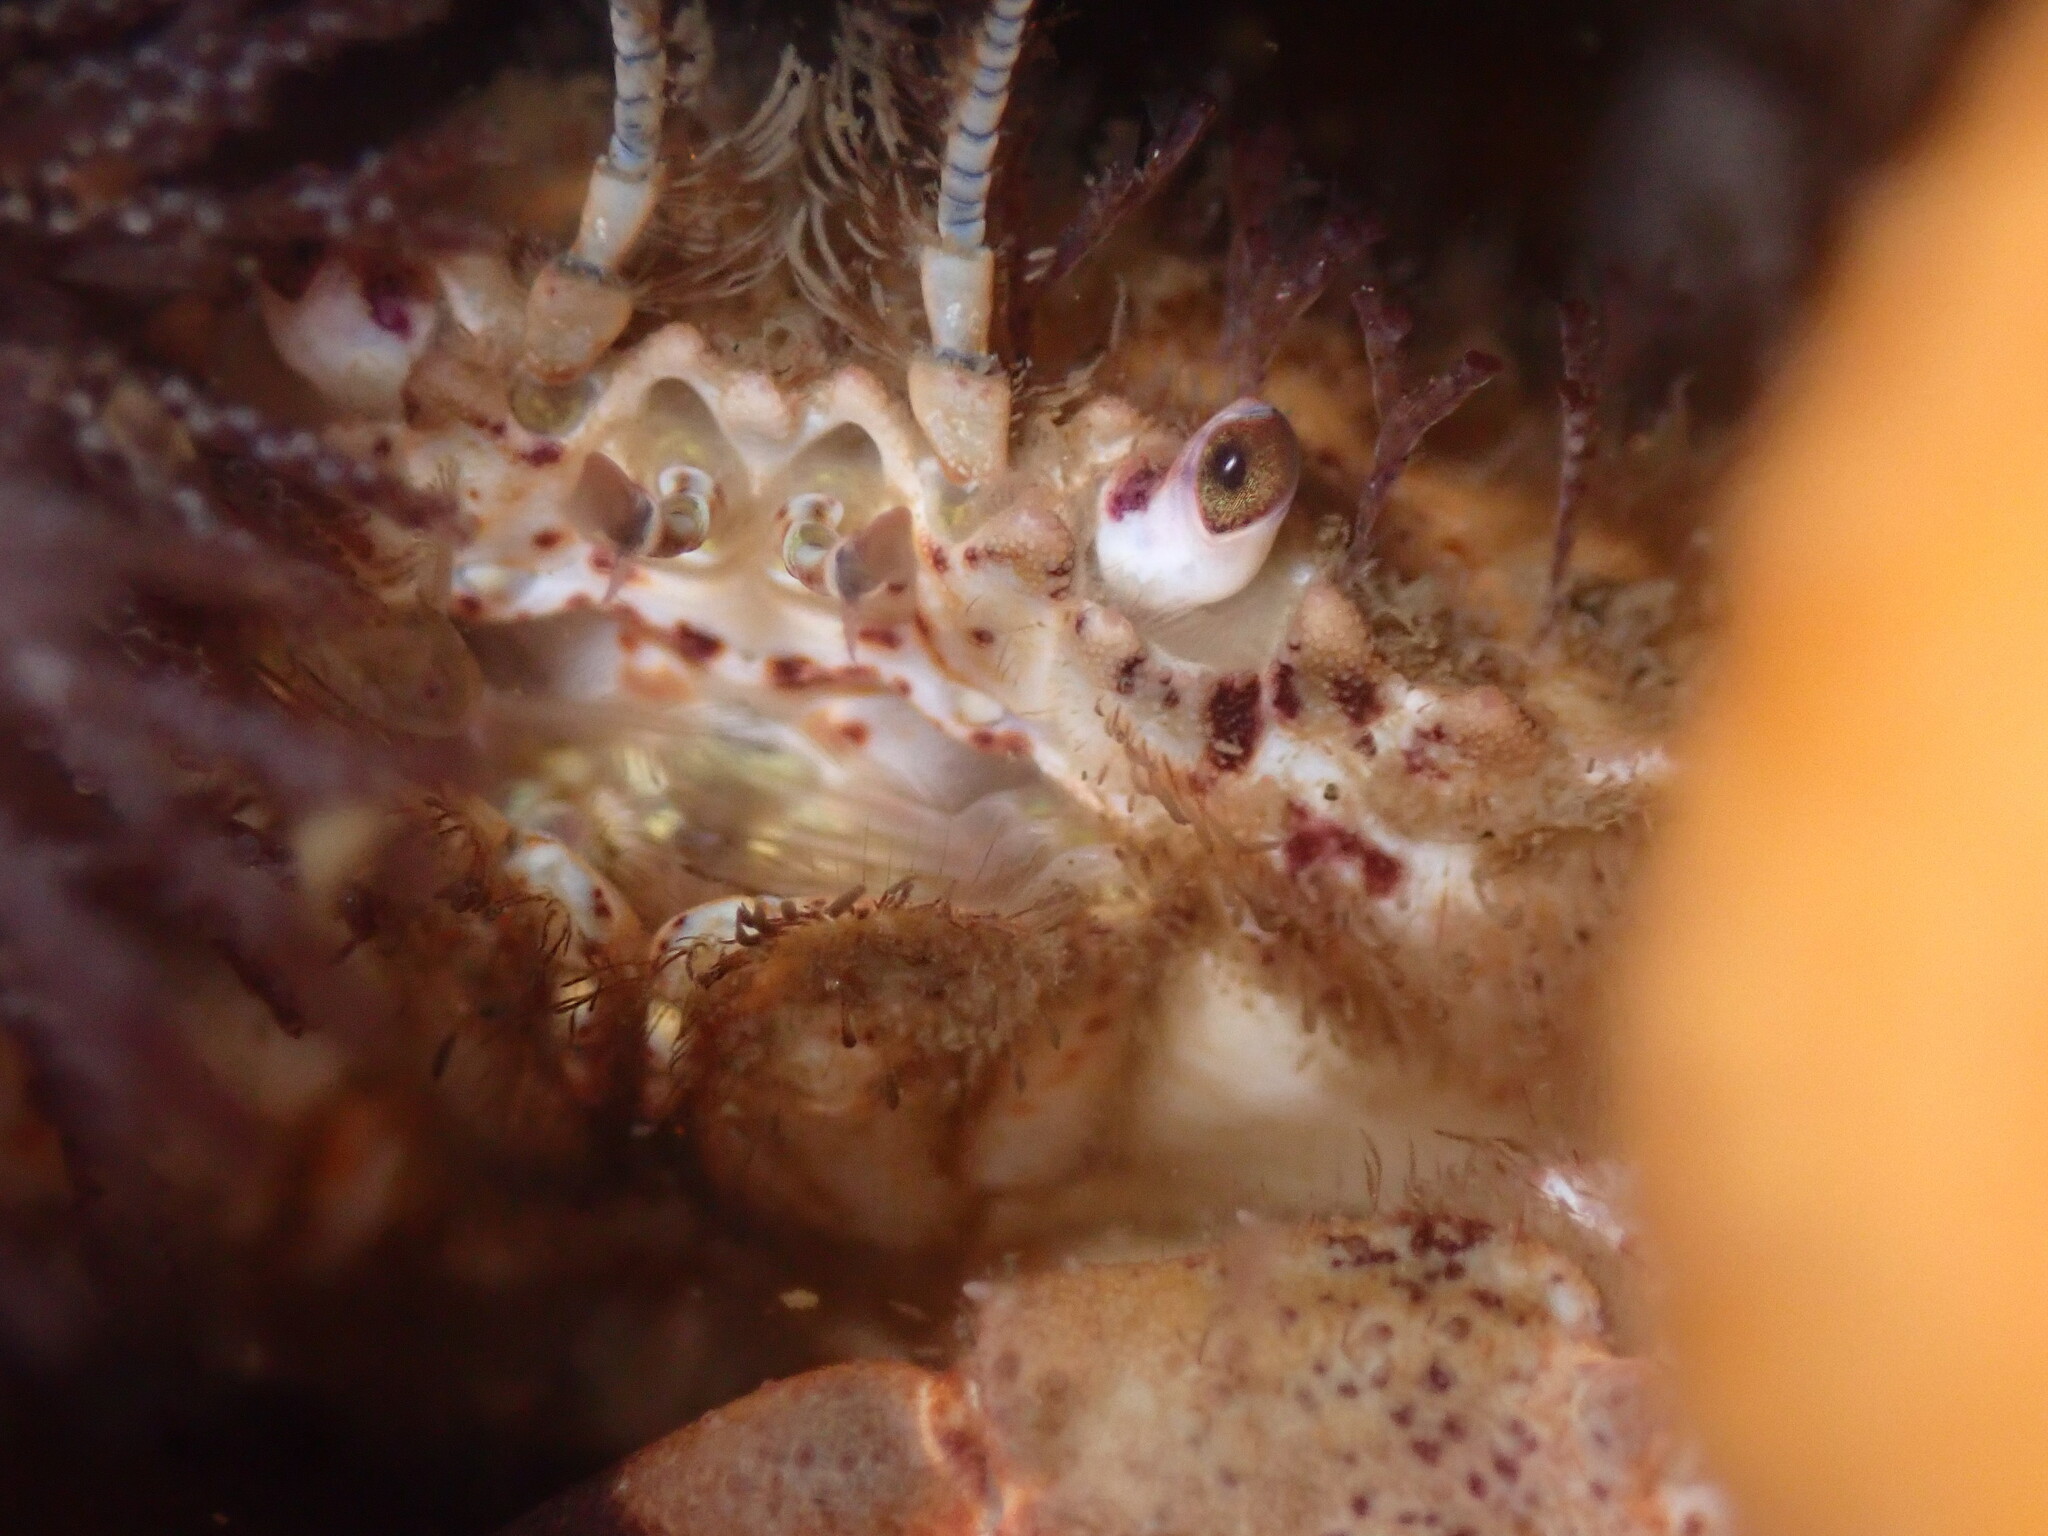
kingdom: Animalia
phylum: Arthropoda
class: Malacostraca
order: Decapoda
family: Cancridae
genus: Romaleon
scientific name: Romaleon antennarium
